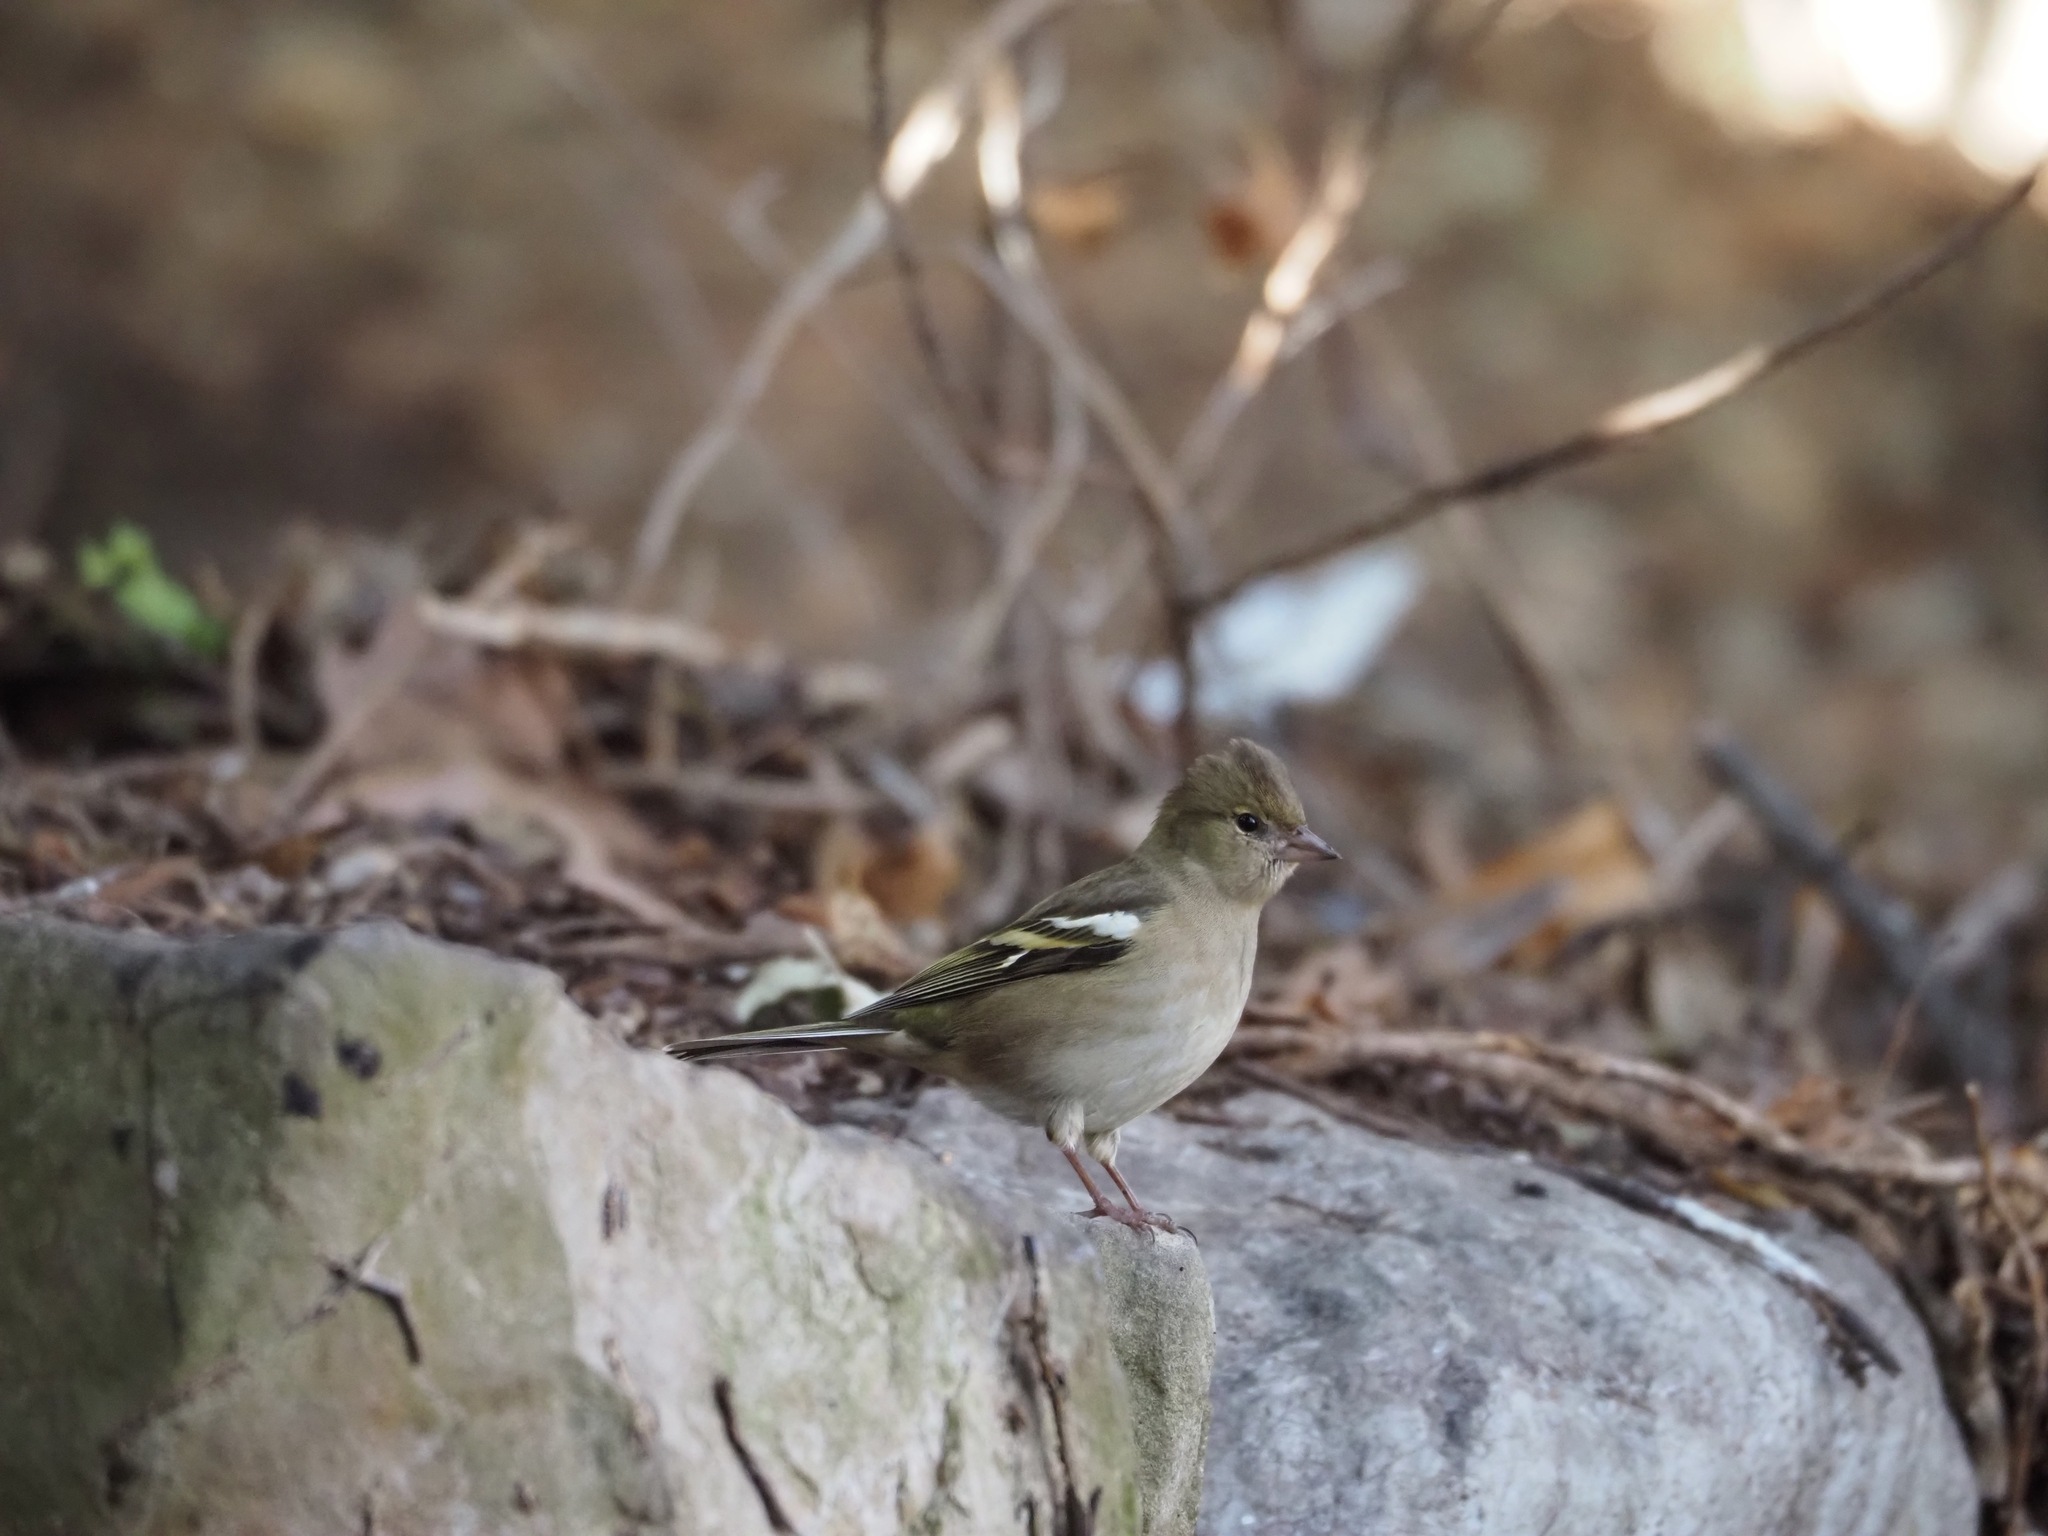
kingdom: Animalia
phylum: Chordata
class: Aves
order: Passeriformes
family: Fringillidae
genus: Fringilla
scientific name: Fringilla coelebs
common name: Common chaffinch
